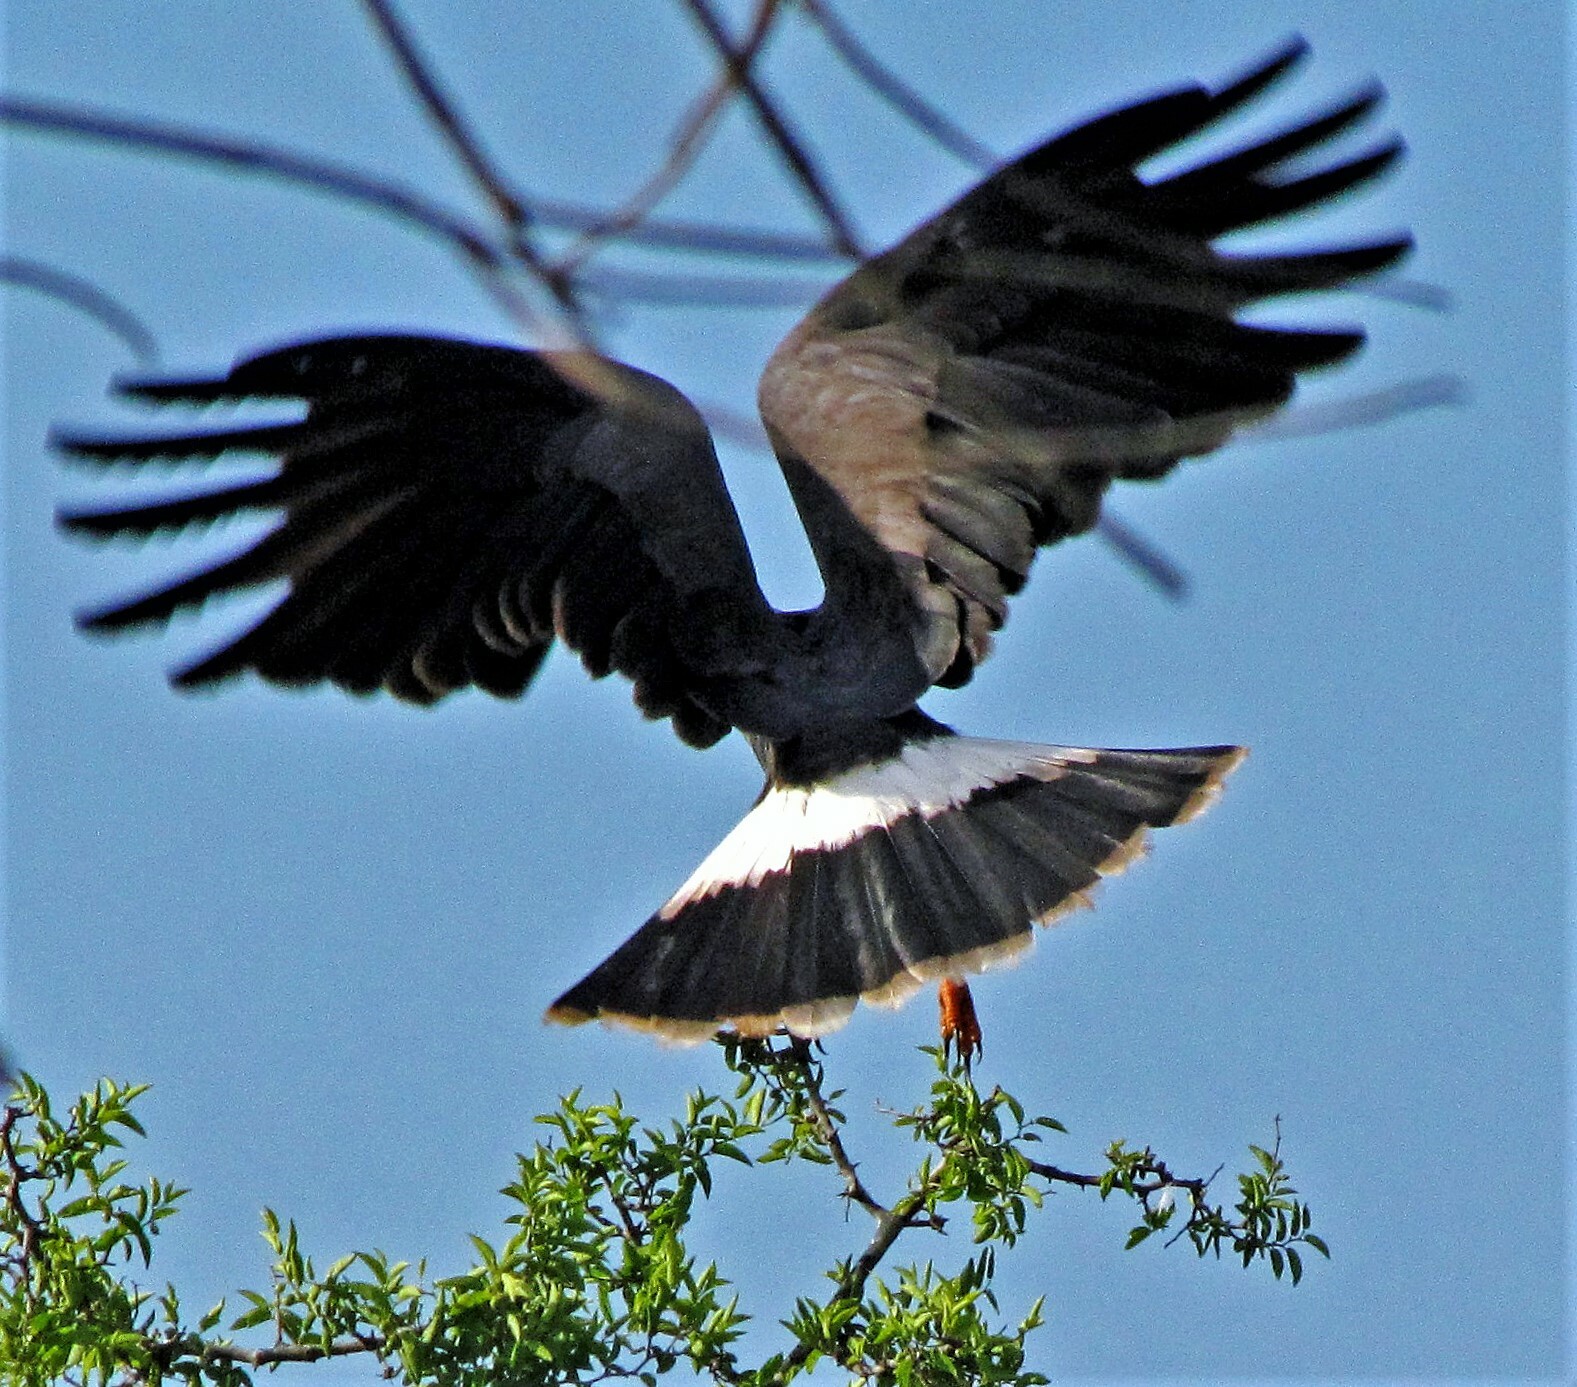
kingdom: Animalia
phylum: Chordata
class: Aves
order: Accipitriformes
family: Accipitridae
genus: Rostrhamus
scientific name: Rostrhamus sociabilis
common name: Snail kite
